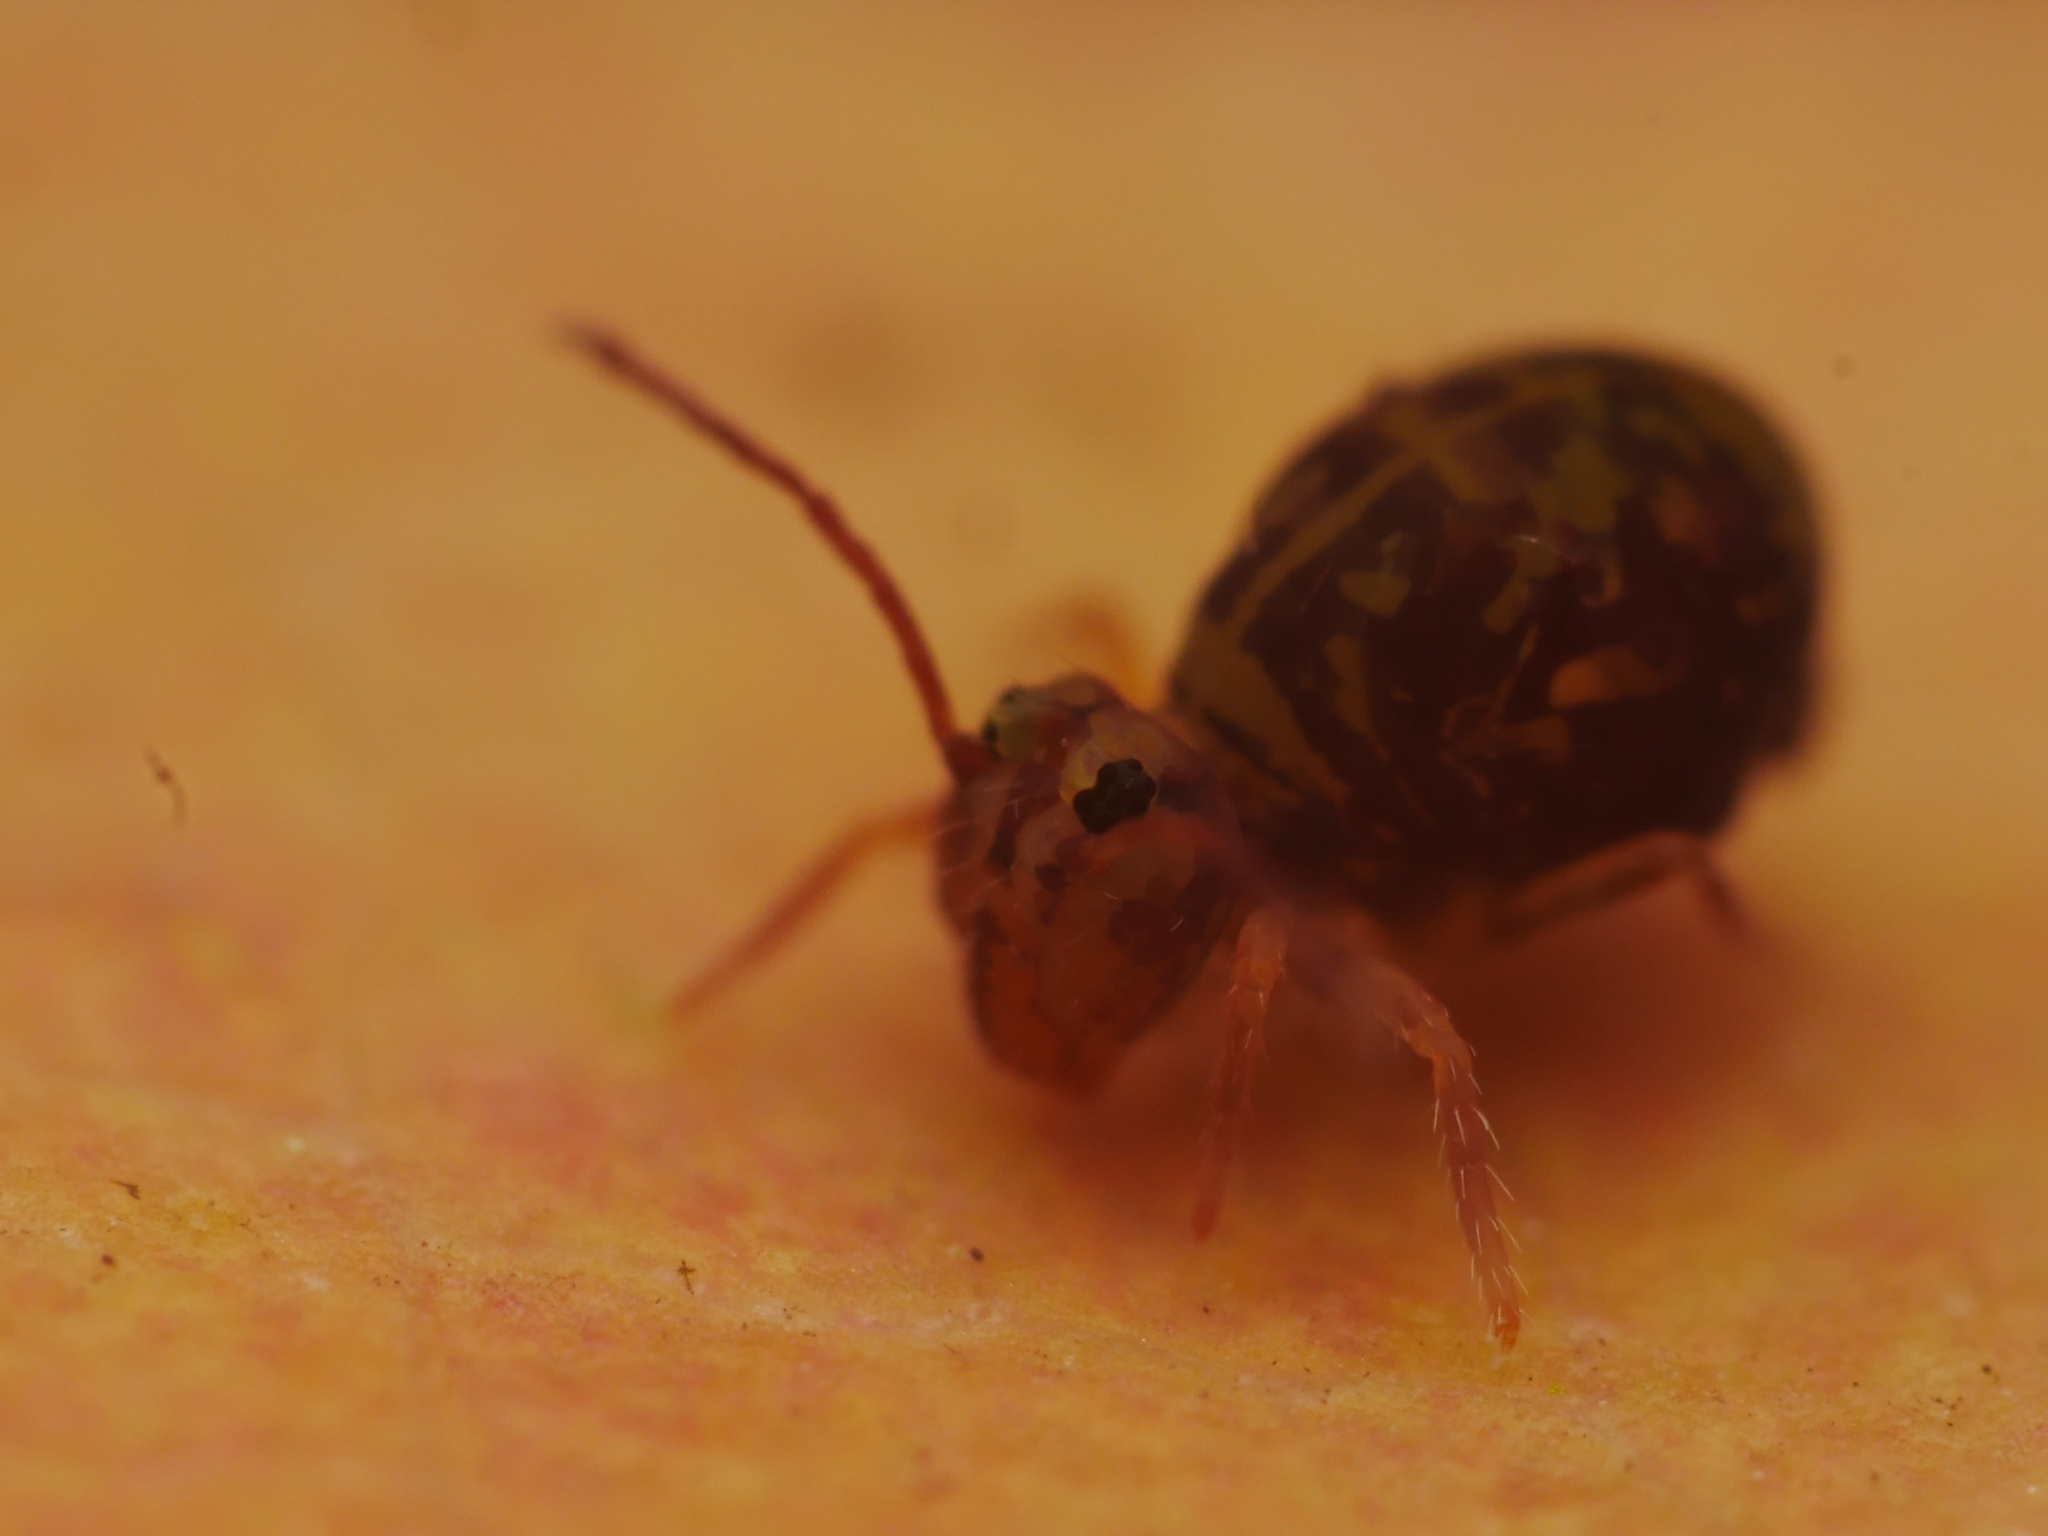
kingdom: Animalia
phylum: Arthropoda
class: Collembola
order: Symphypleona
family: Dicyrtomidae
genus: Dicyrtomina
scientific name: Dicyrtomina ornata
